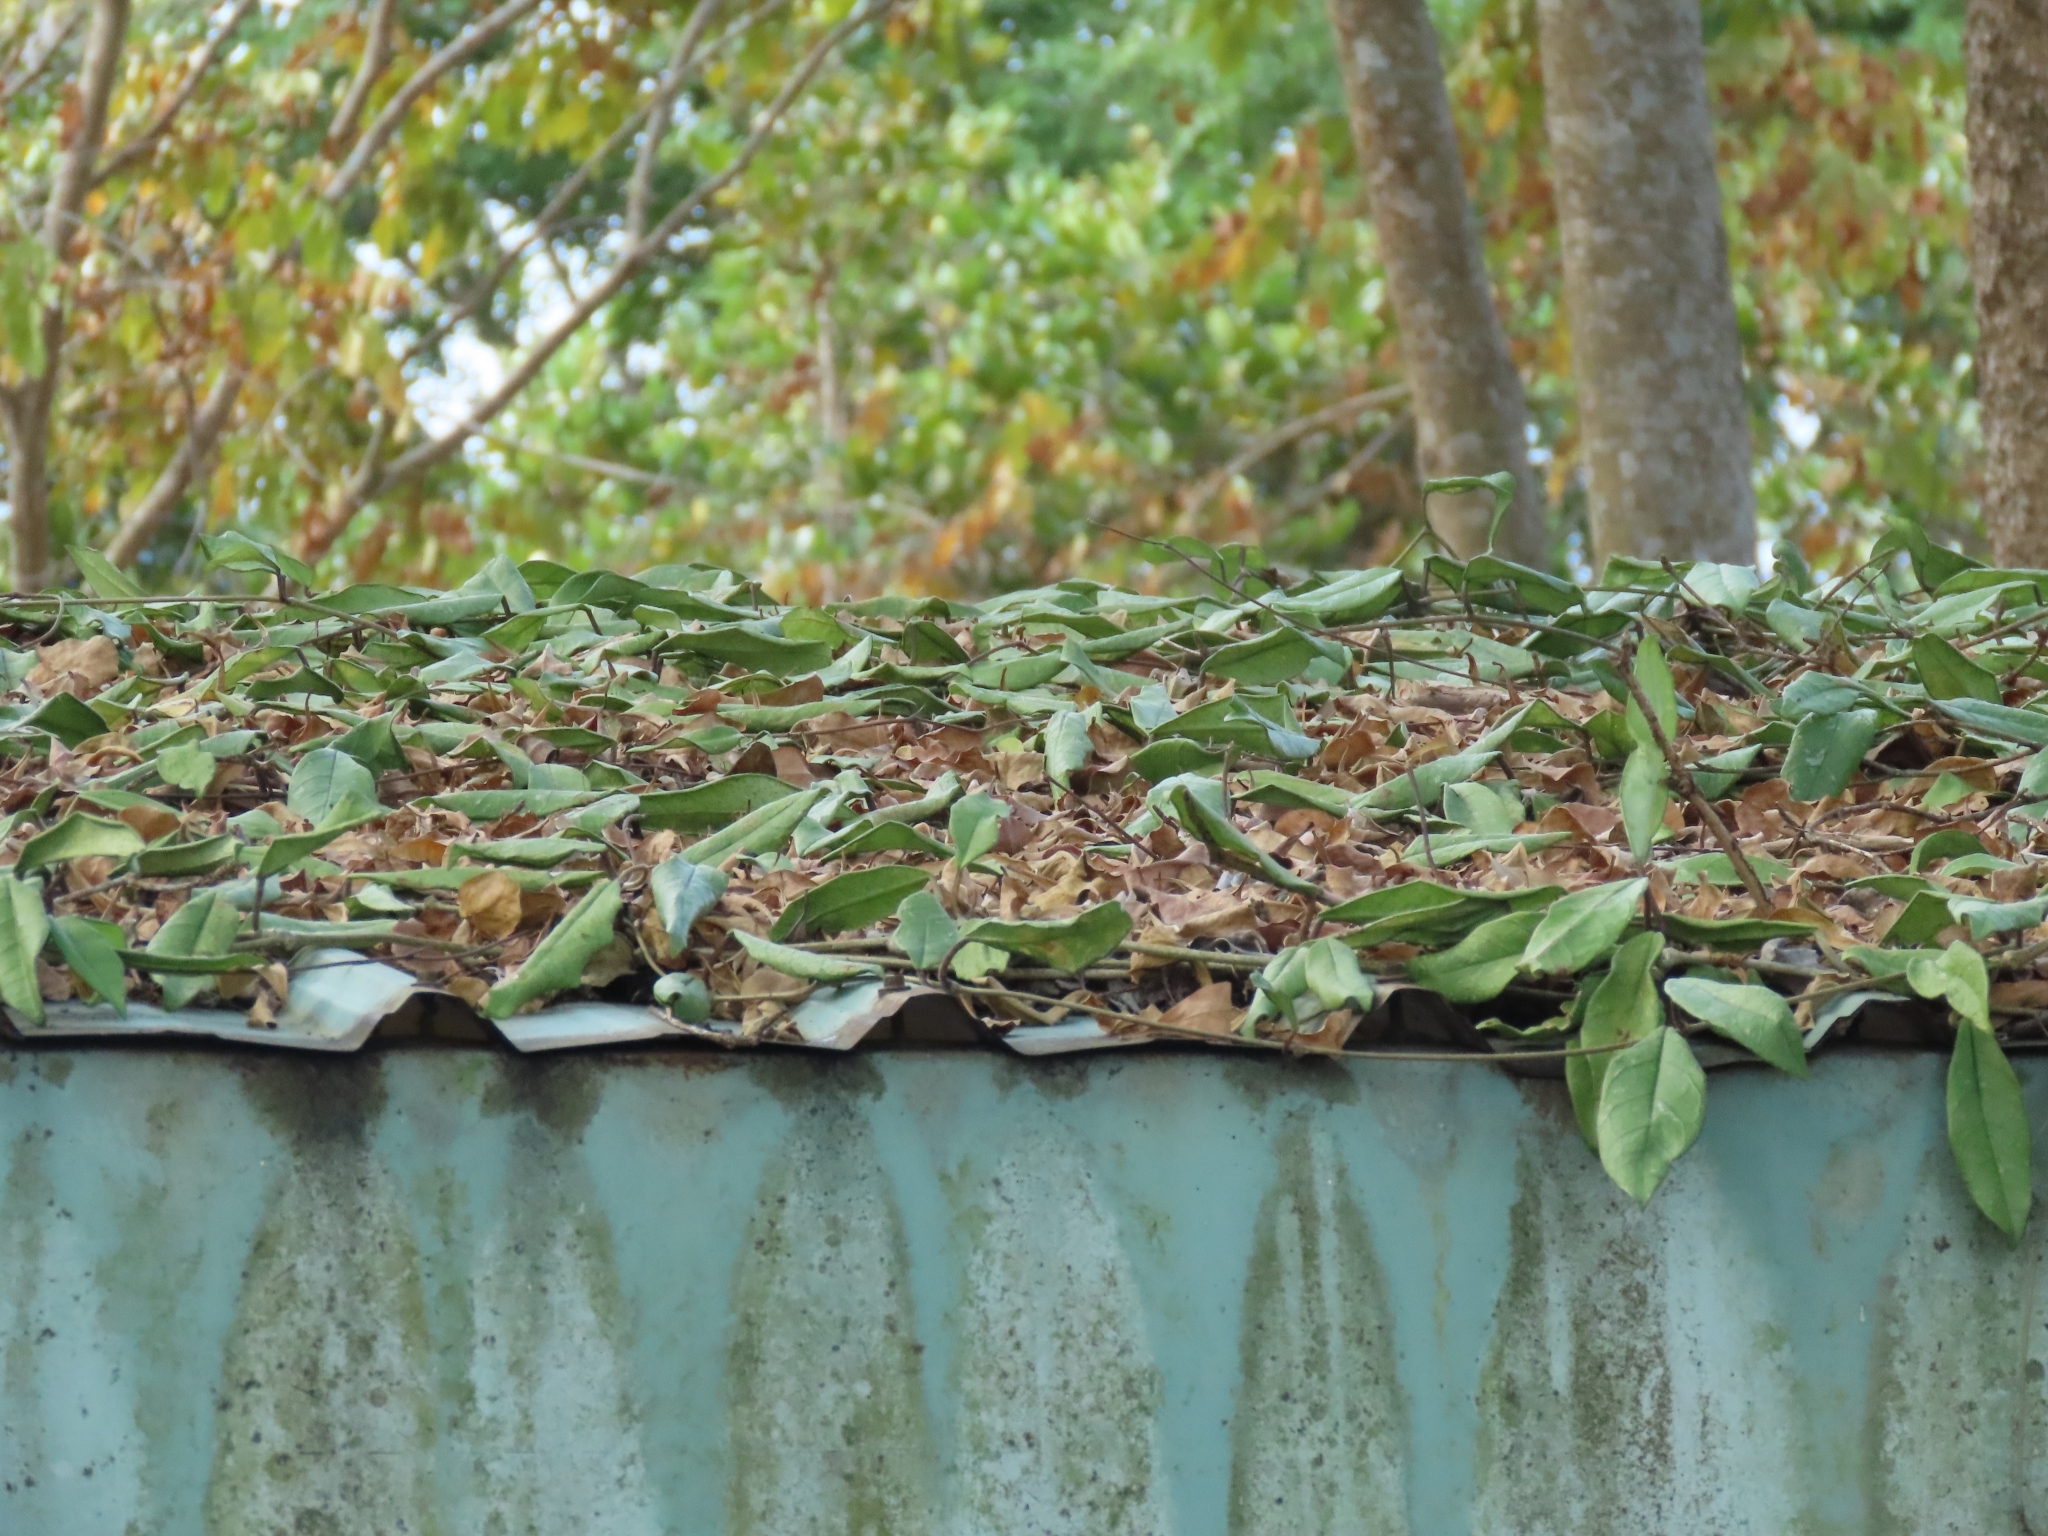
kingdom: Plantae
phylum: Tracheophyta
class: Magnoliopsida
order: Gentianales
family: Apocynaceae
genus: Hoya
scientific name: Hoya carnosa
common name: Honeyplant
